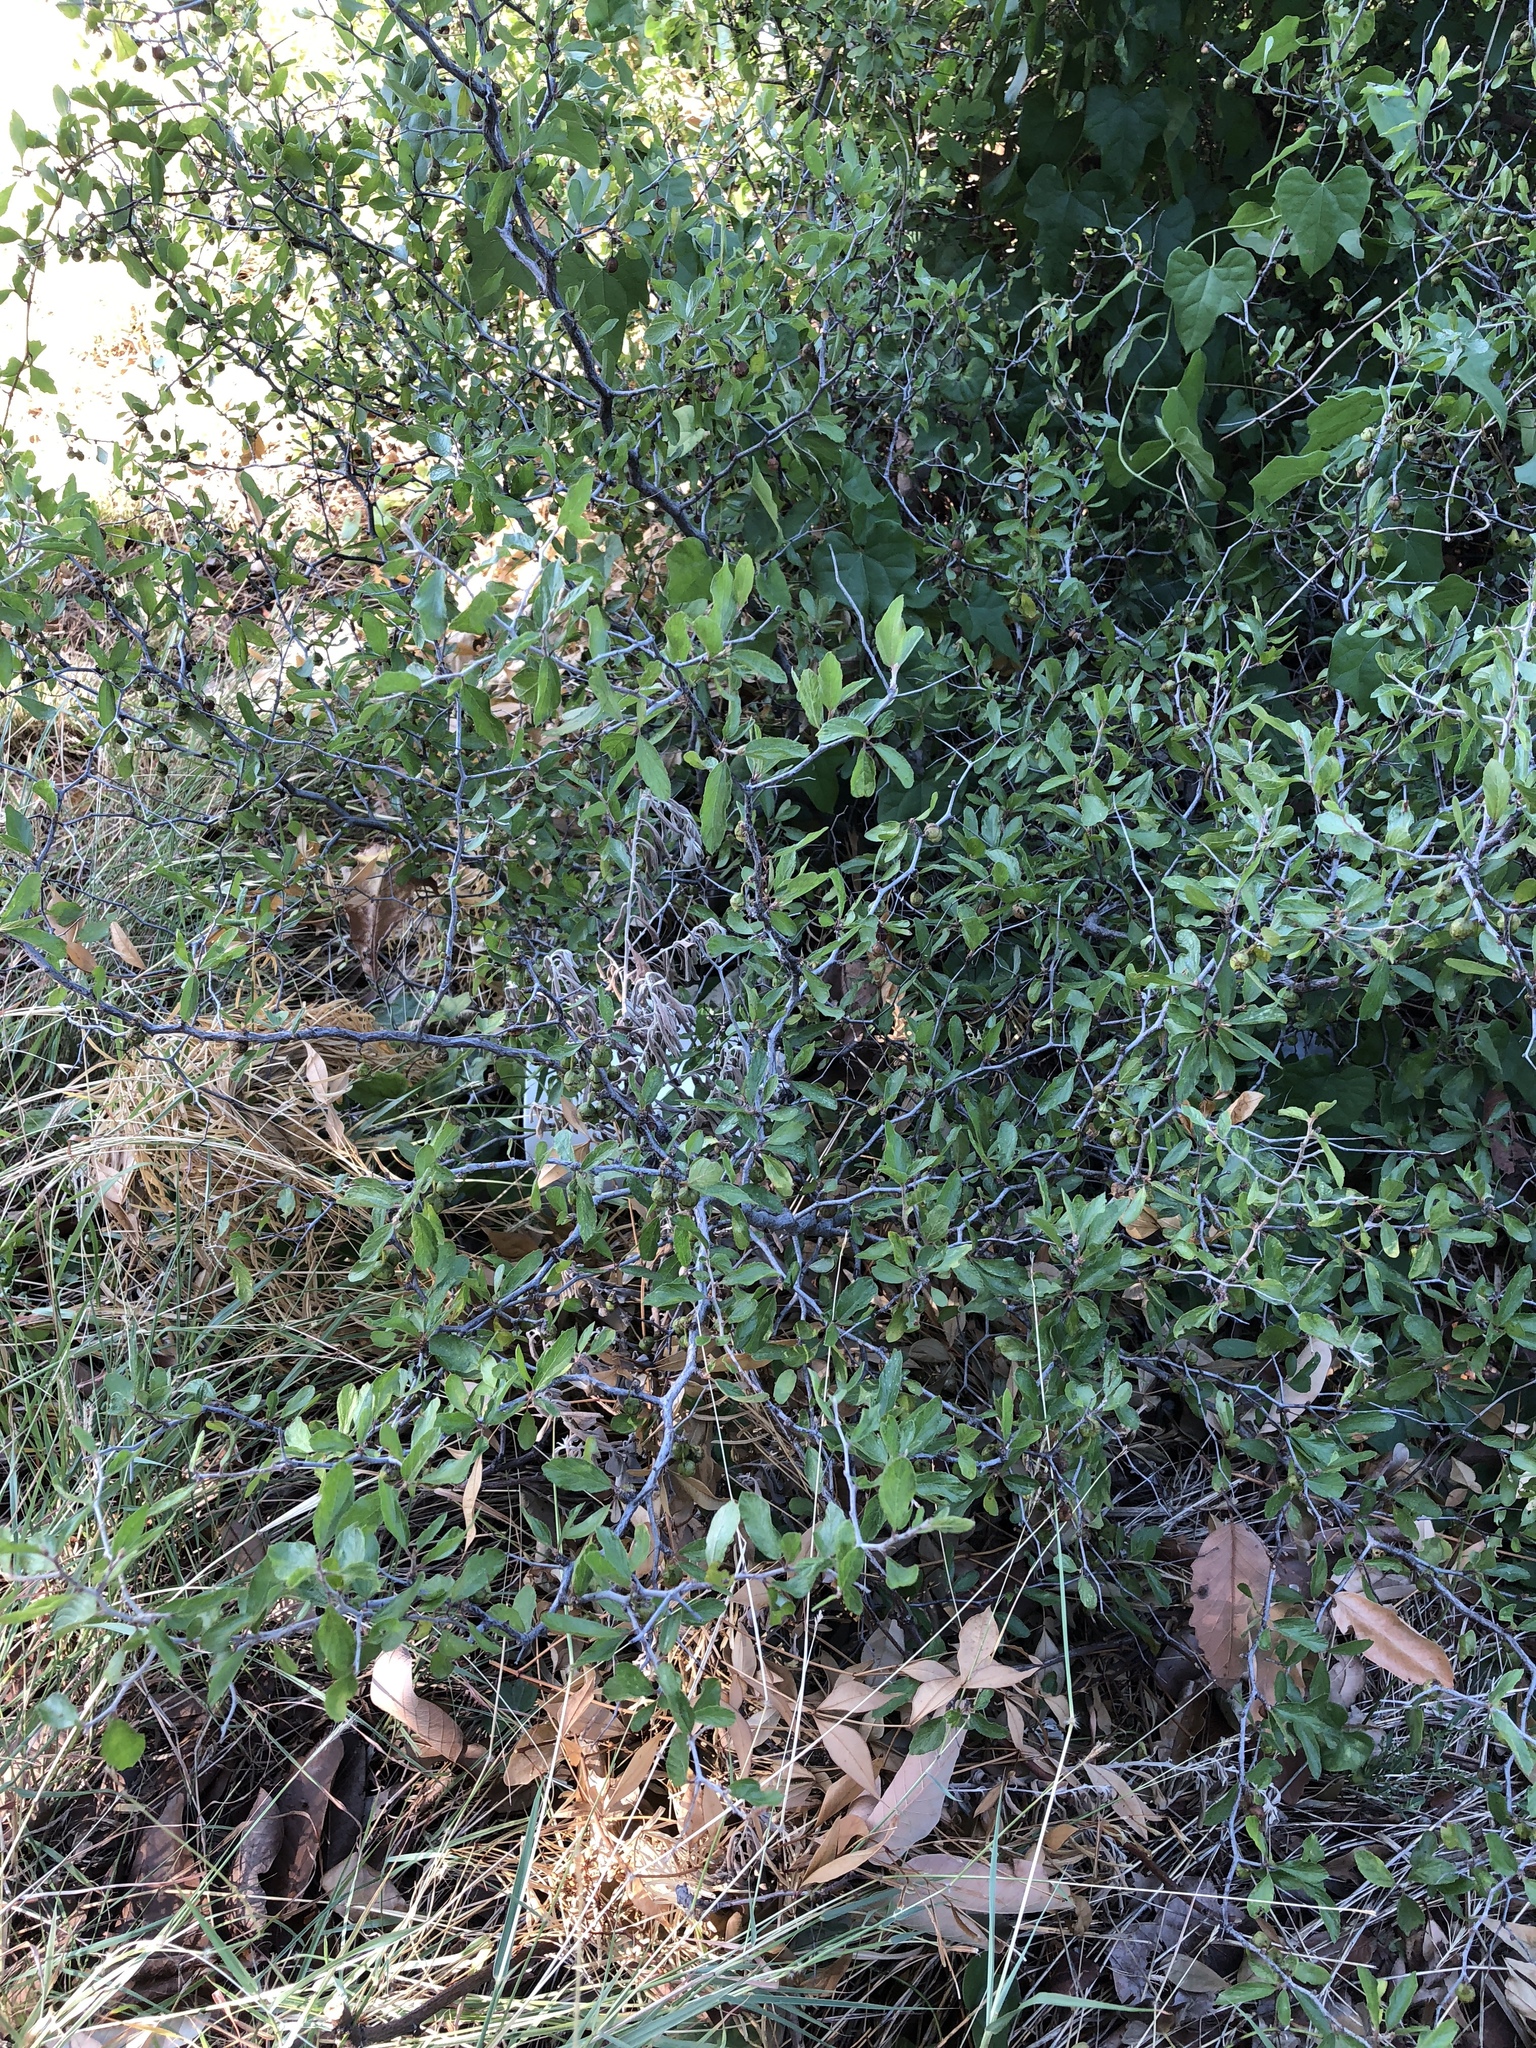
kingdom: Plantae
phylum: Tracheophyta
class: Magnoliopsida
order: Rosales
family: Rhamnaceae
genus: Colubrina
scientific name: Colubrina texensis
